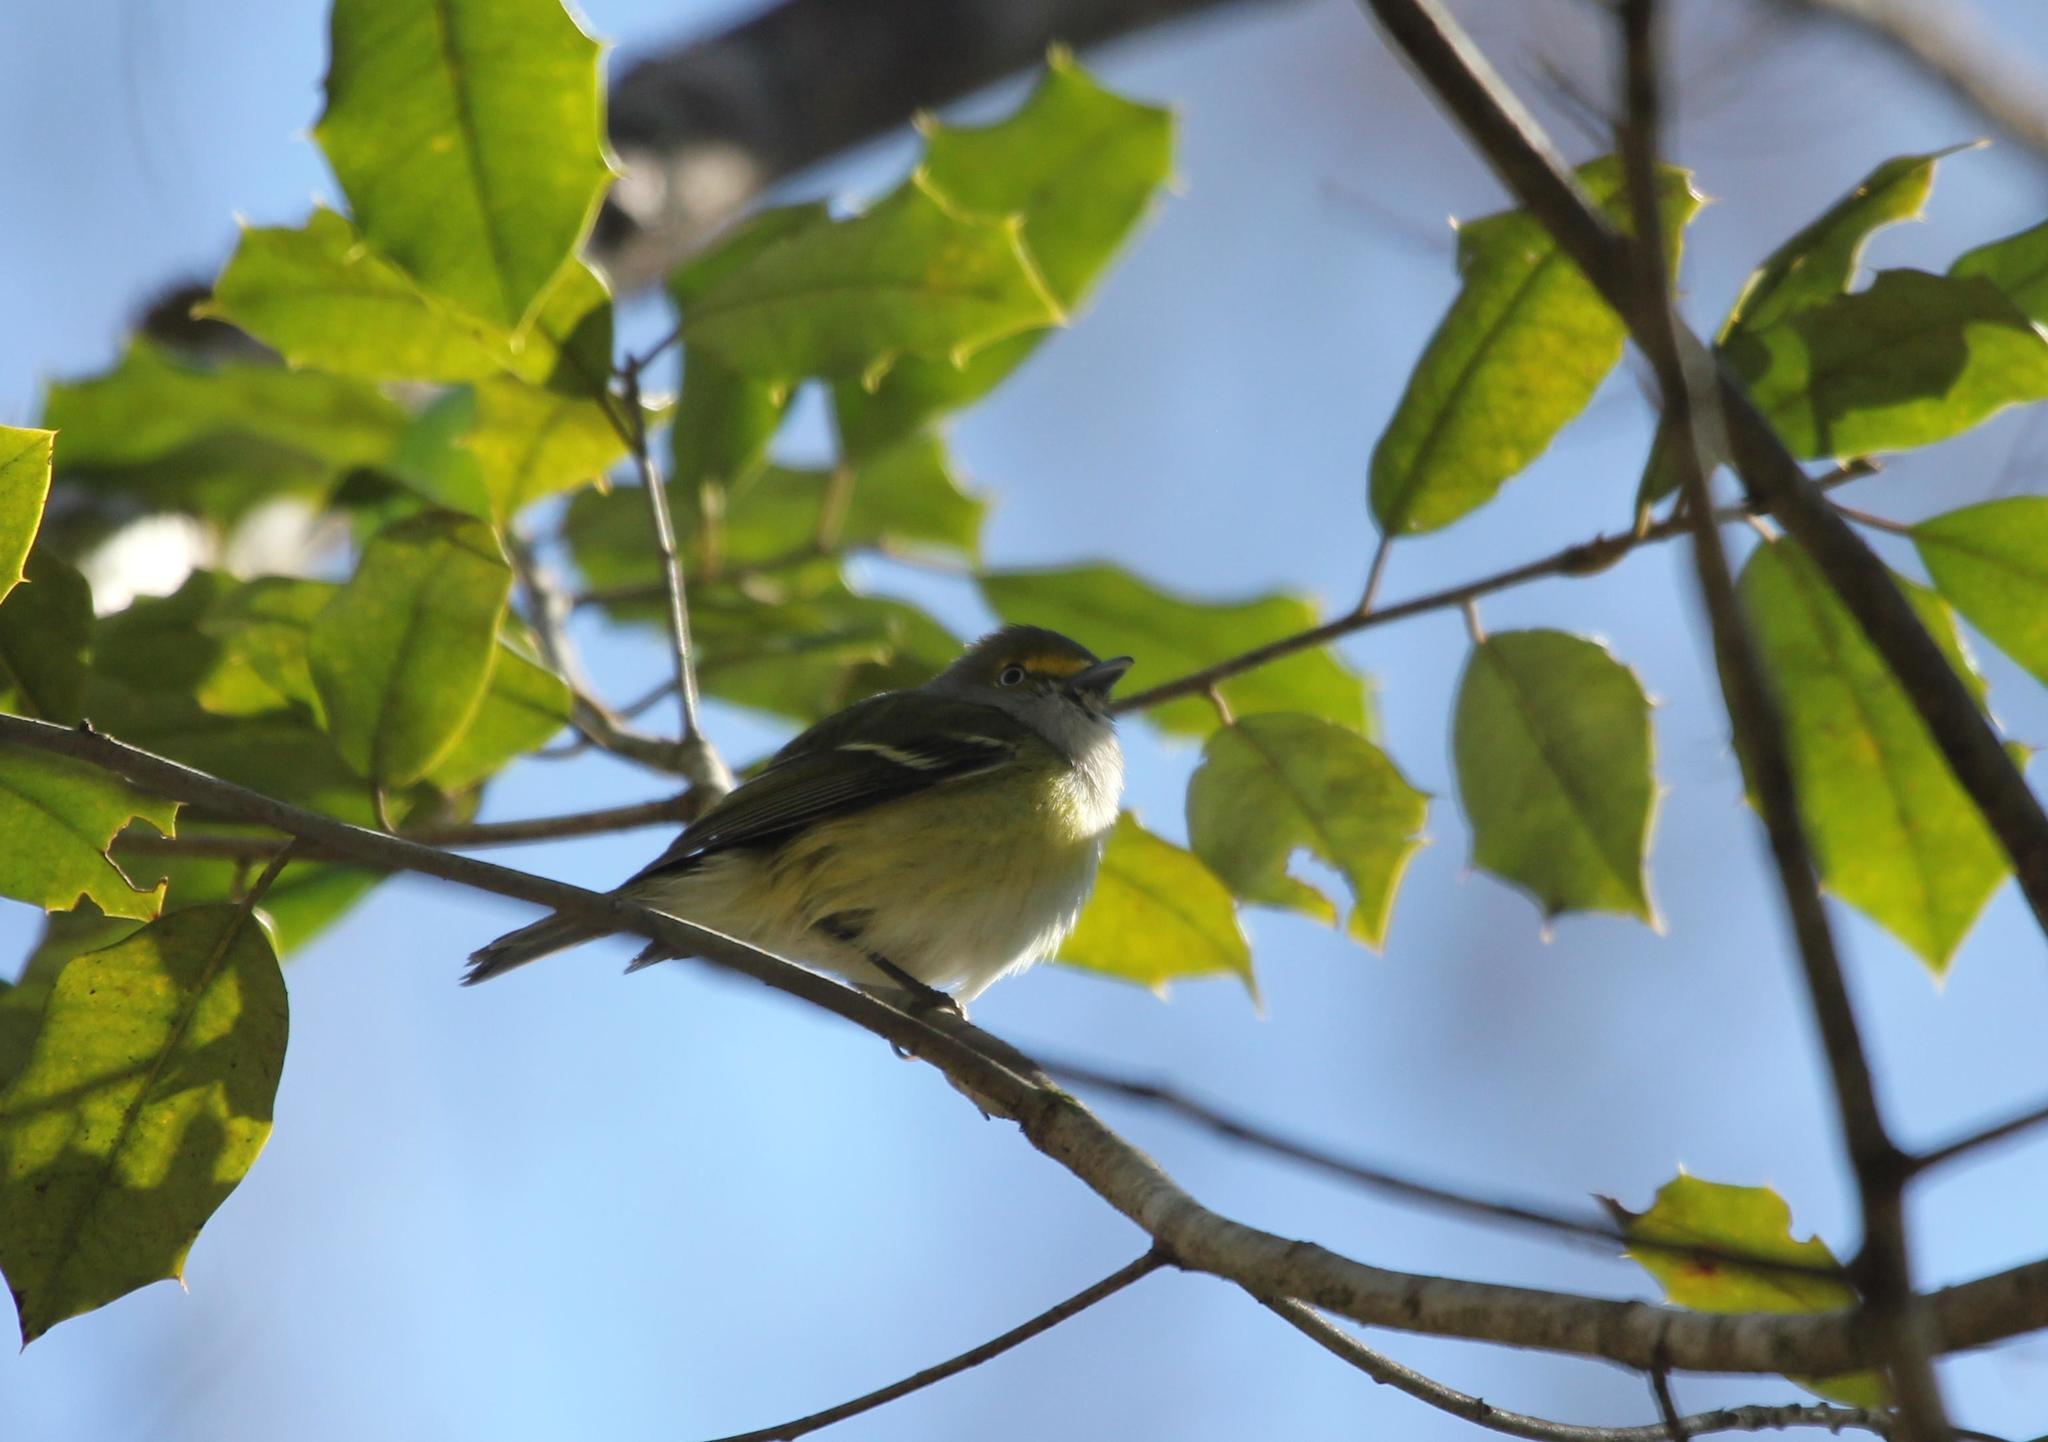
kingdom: Animalia
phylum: Chordata
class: Aves
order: Passeriformes
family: Vireonidae
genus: Vireo
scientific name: Vireo griseus
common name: White-eyed vireo
